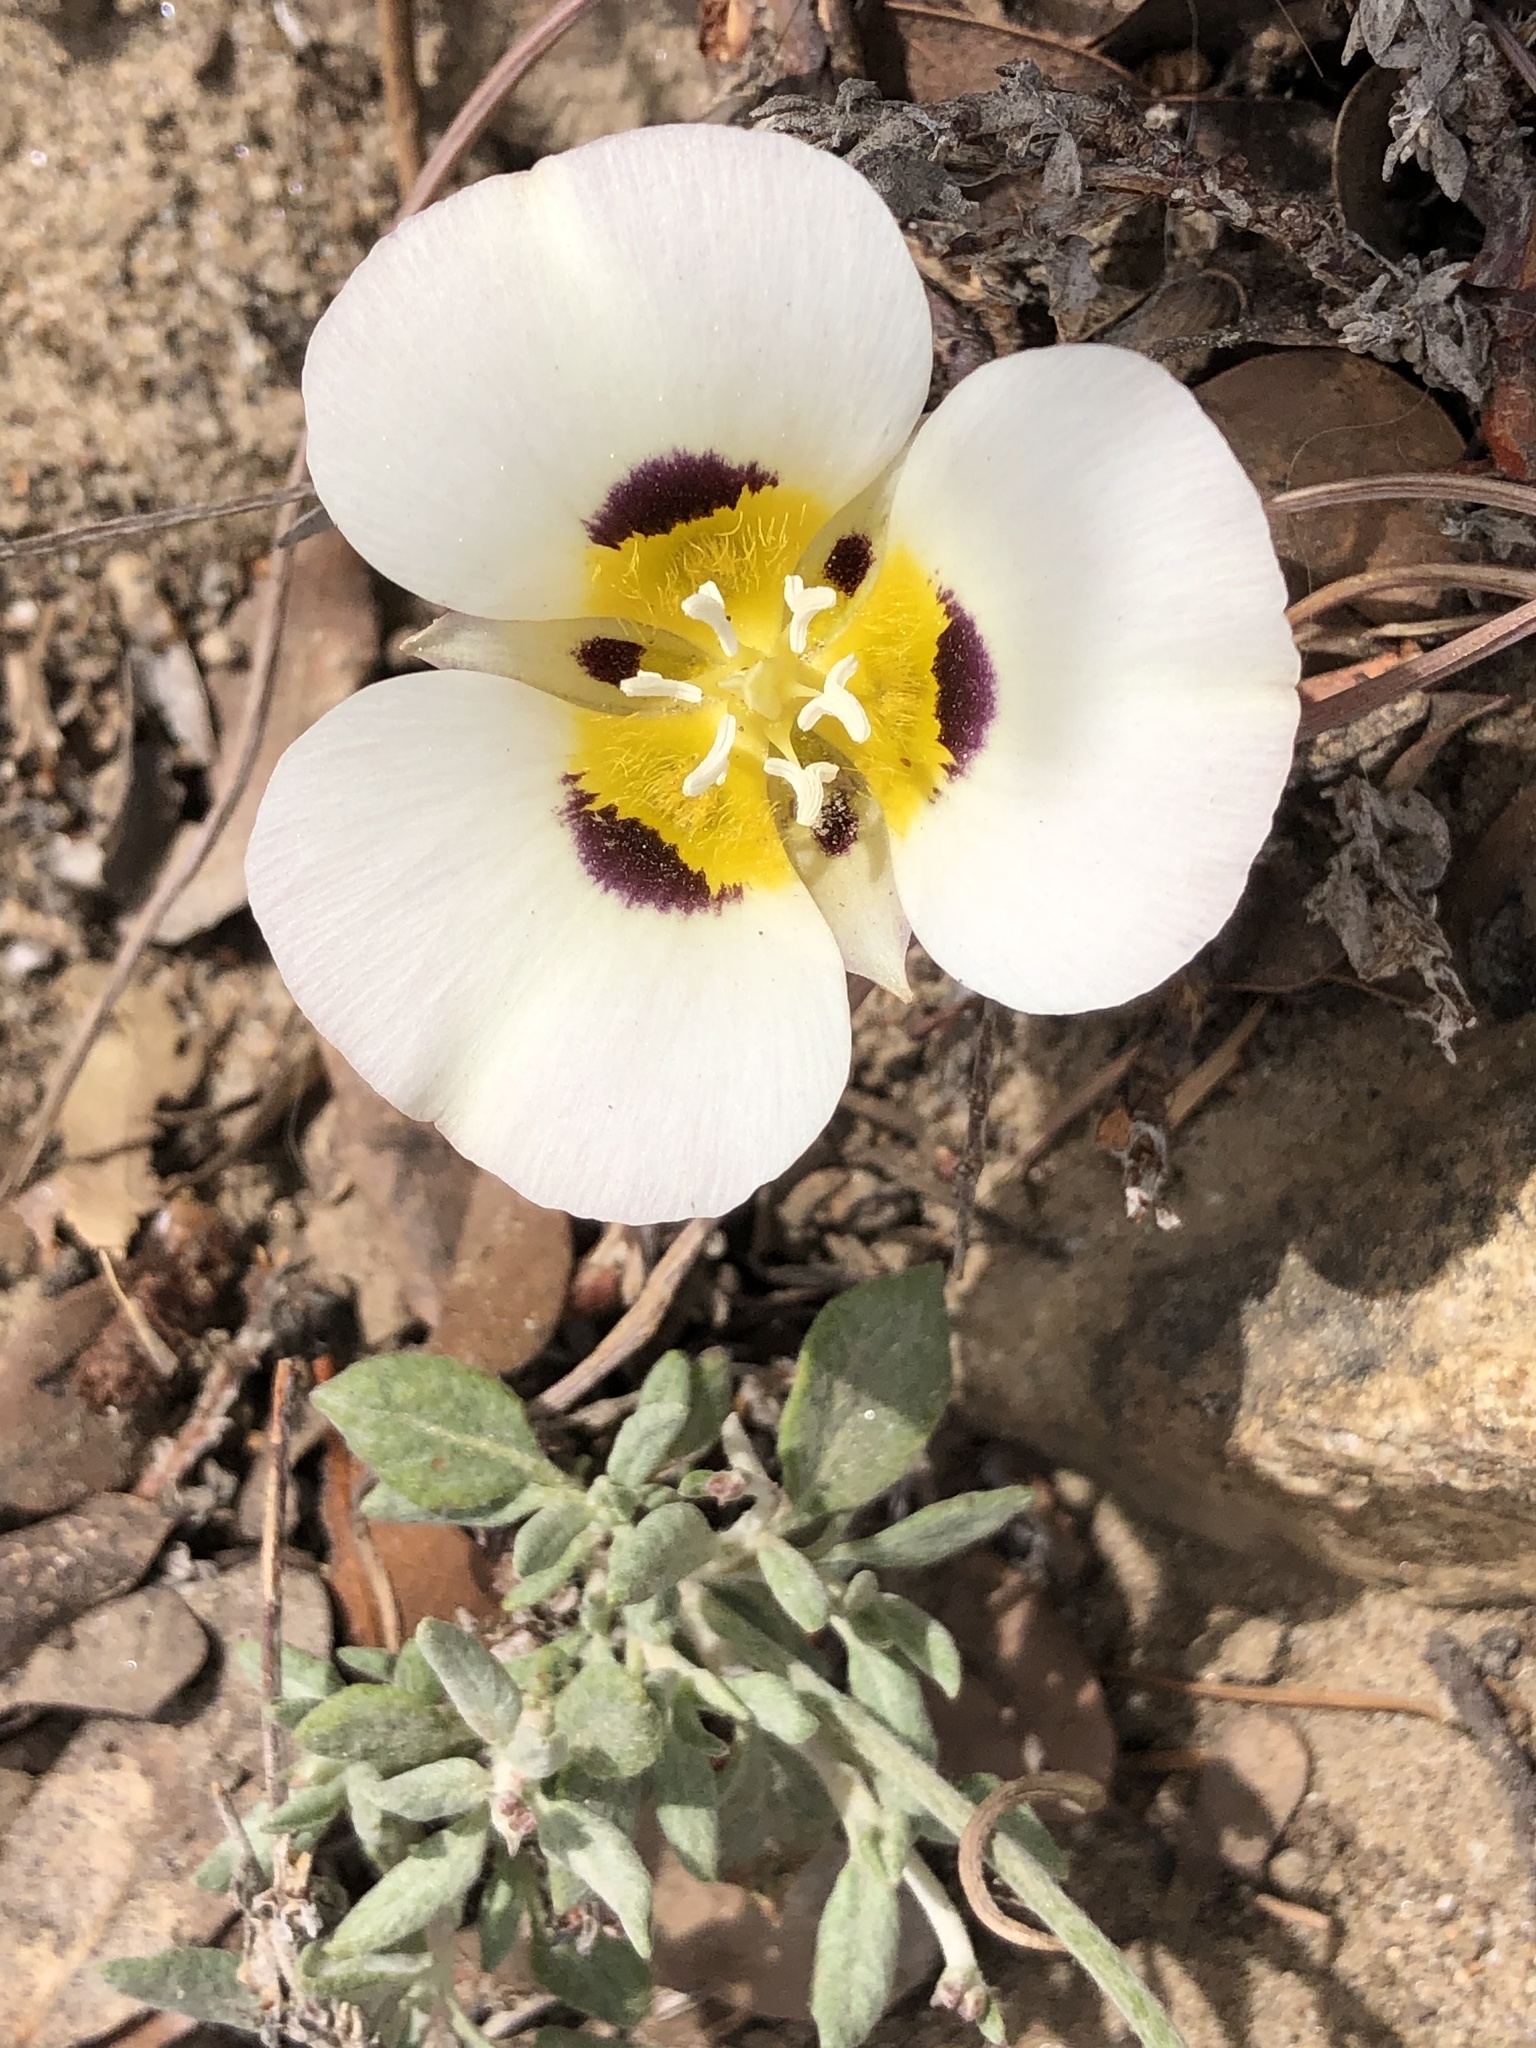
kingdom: Plantae
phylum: Tracheophyta
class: Liliopsida
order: Liliales
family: Liliaceae
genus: Calochortus
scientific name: Calochortus leichtlinii
